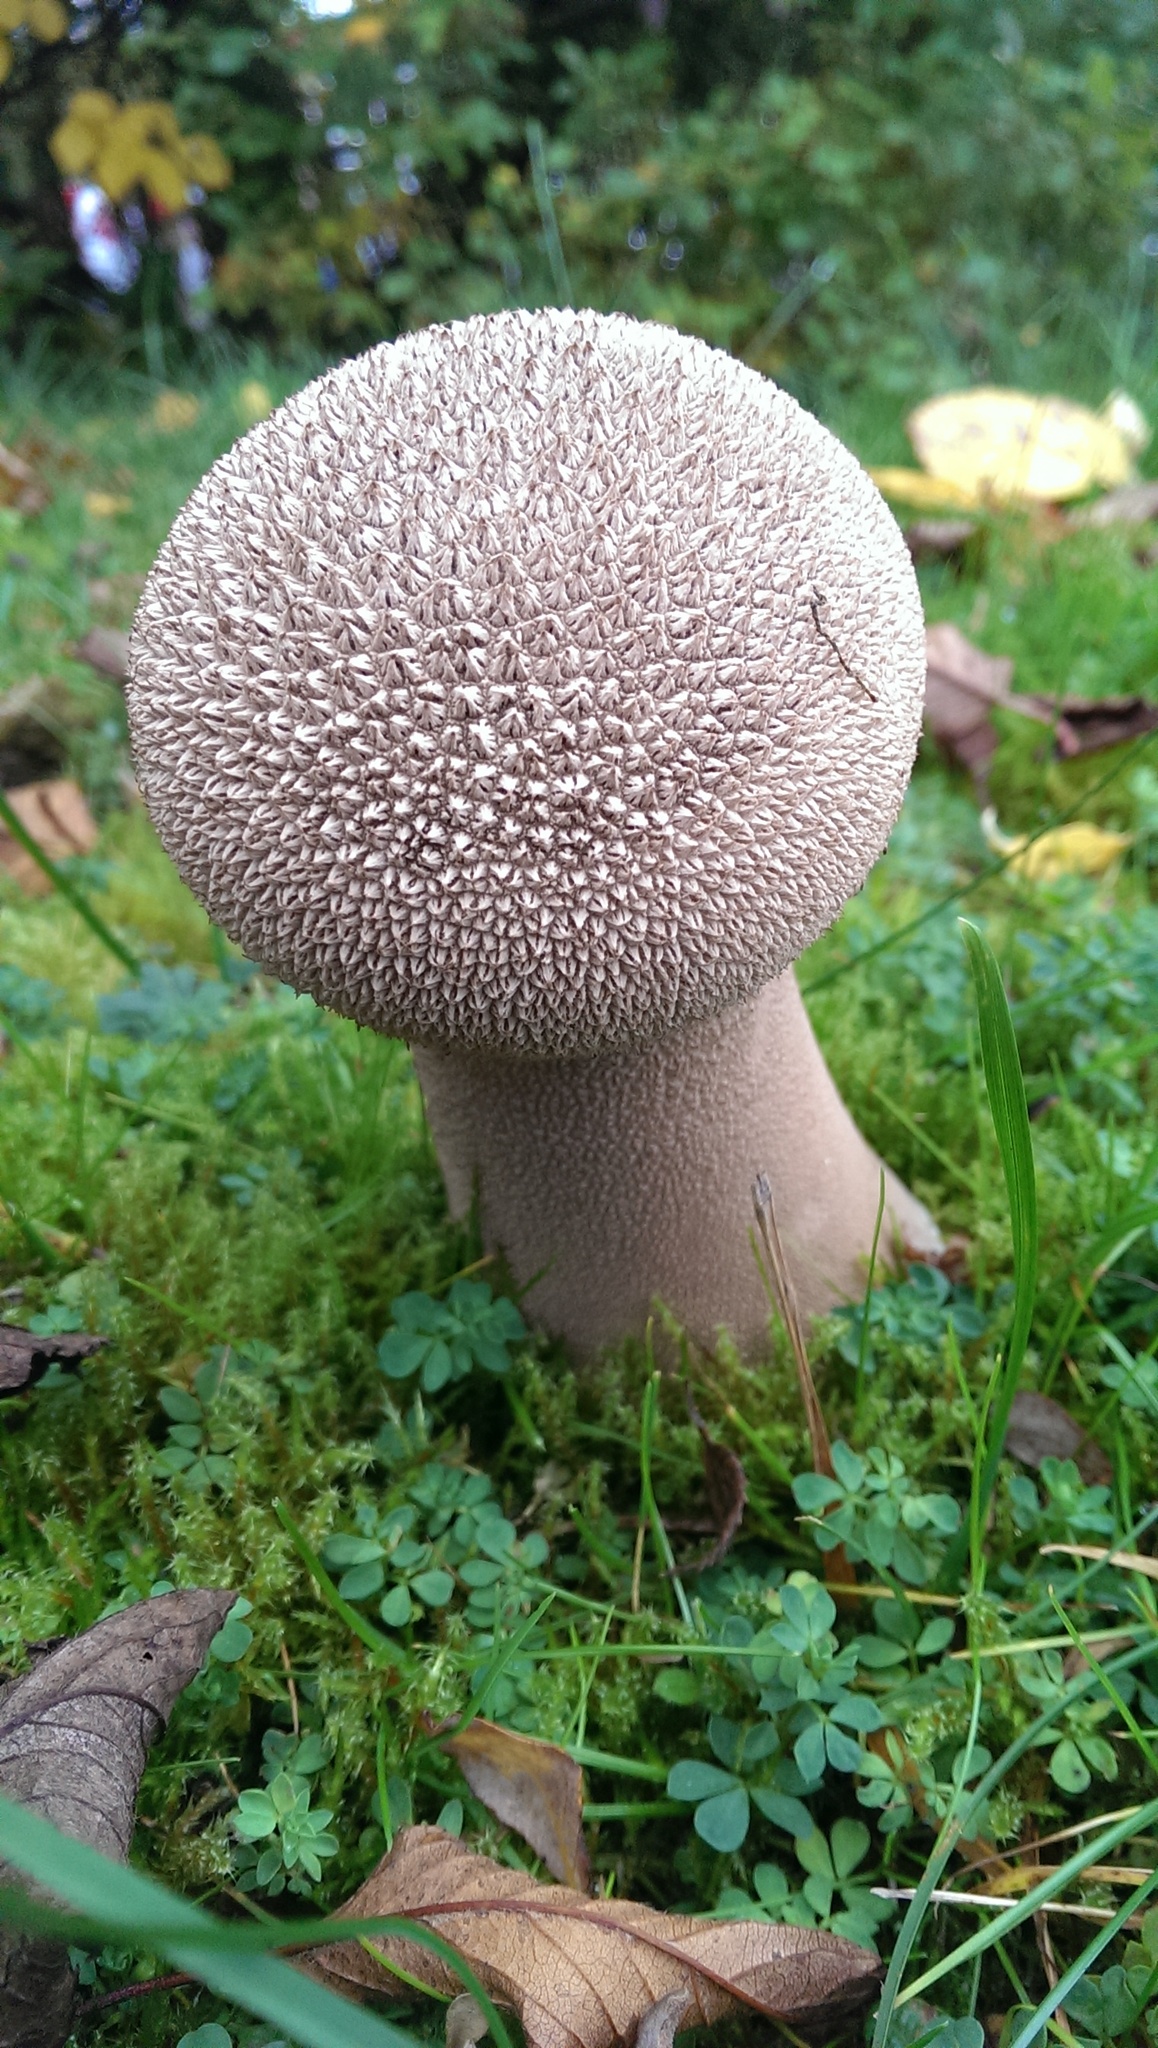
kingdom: Fungi
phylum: Basidiomycota
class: Agaricomycetes
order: Agaricales
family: Lycoperdaceae
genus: Lycoperdon
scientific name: Lycoperdon excipuliforme
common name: Pestle puffball
